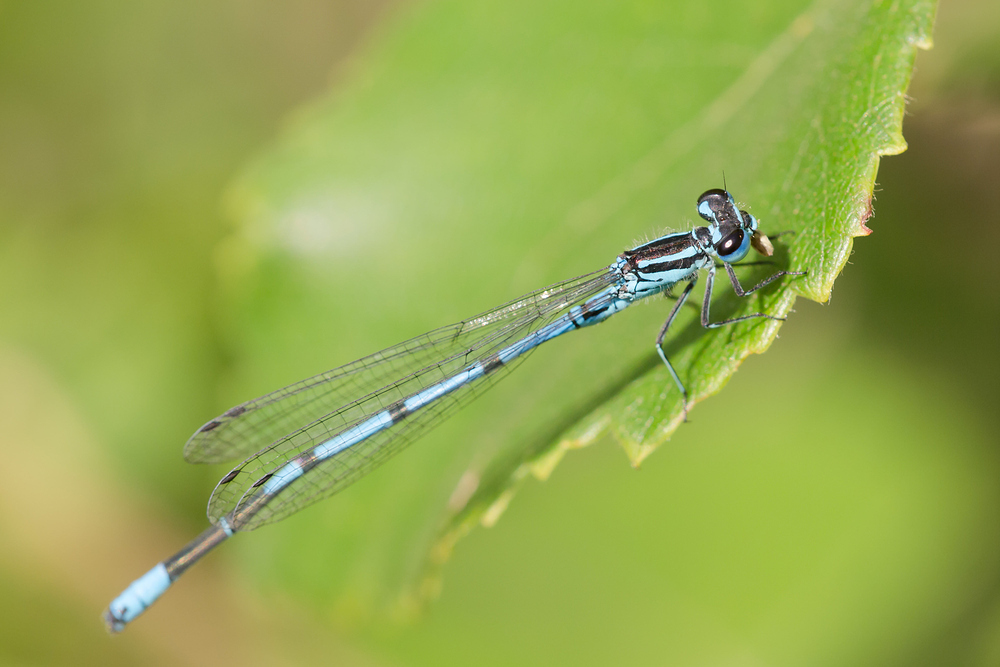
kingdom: Animalia
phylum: Arthropoda
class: Insecta
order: Odonata
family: Coenagrionidae
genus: Coenagrion
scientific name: Coenagrion puella
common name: Azure damselfly
